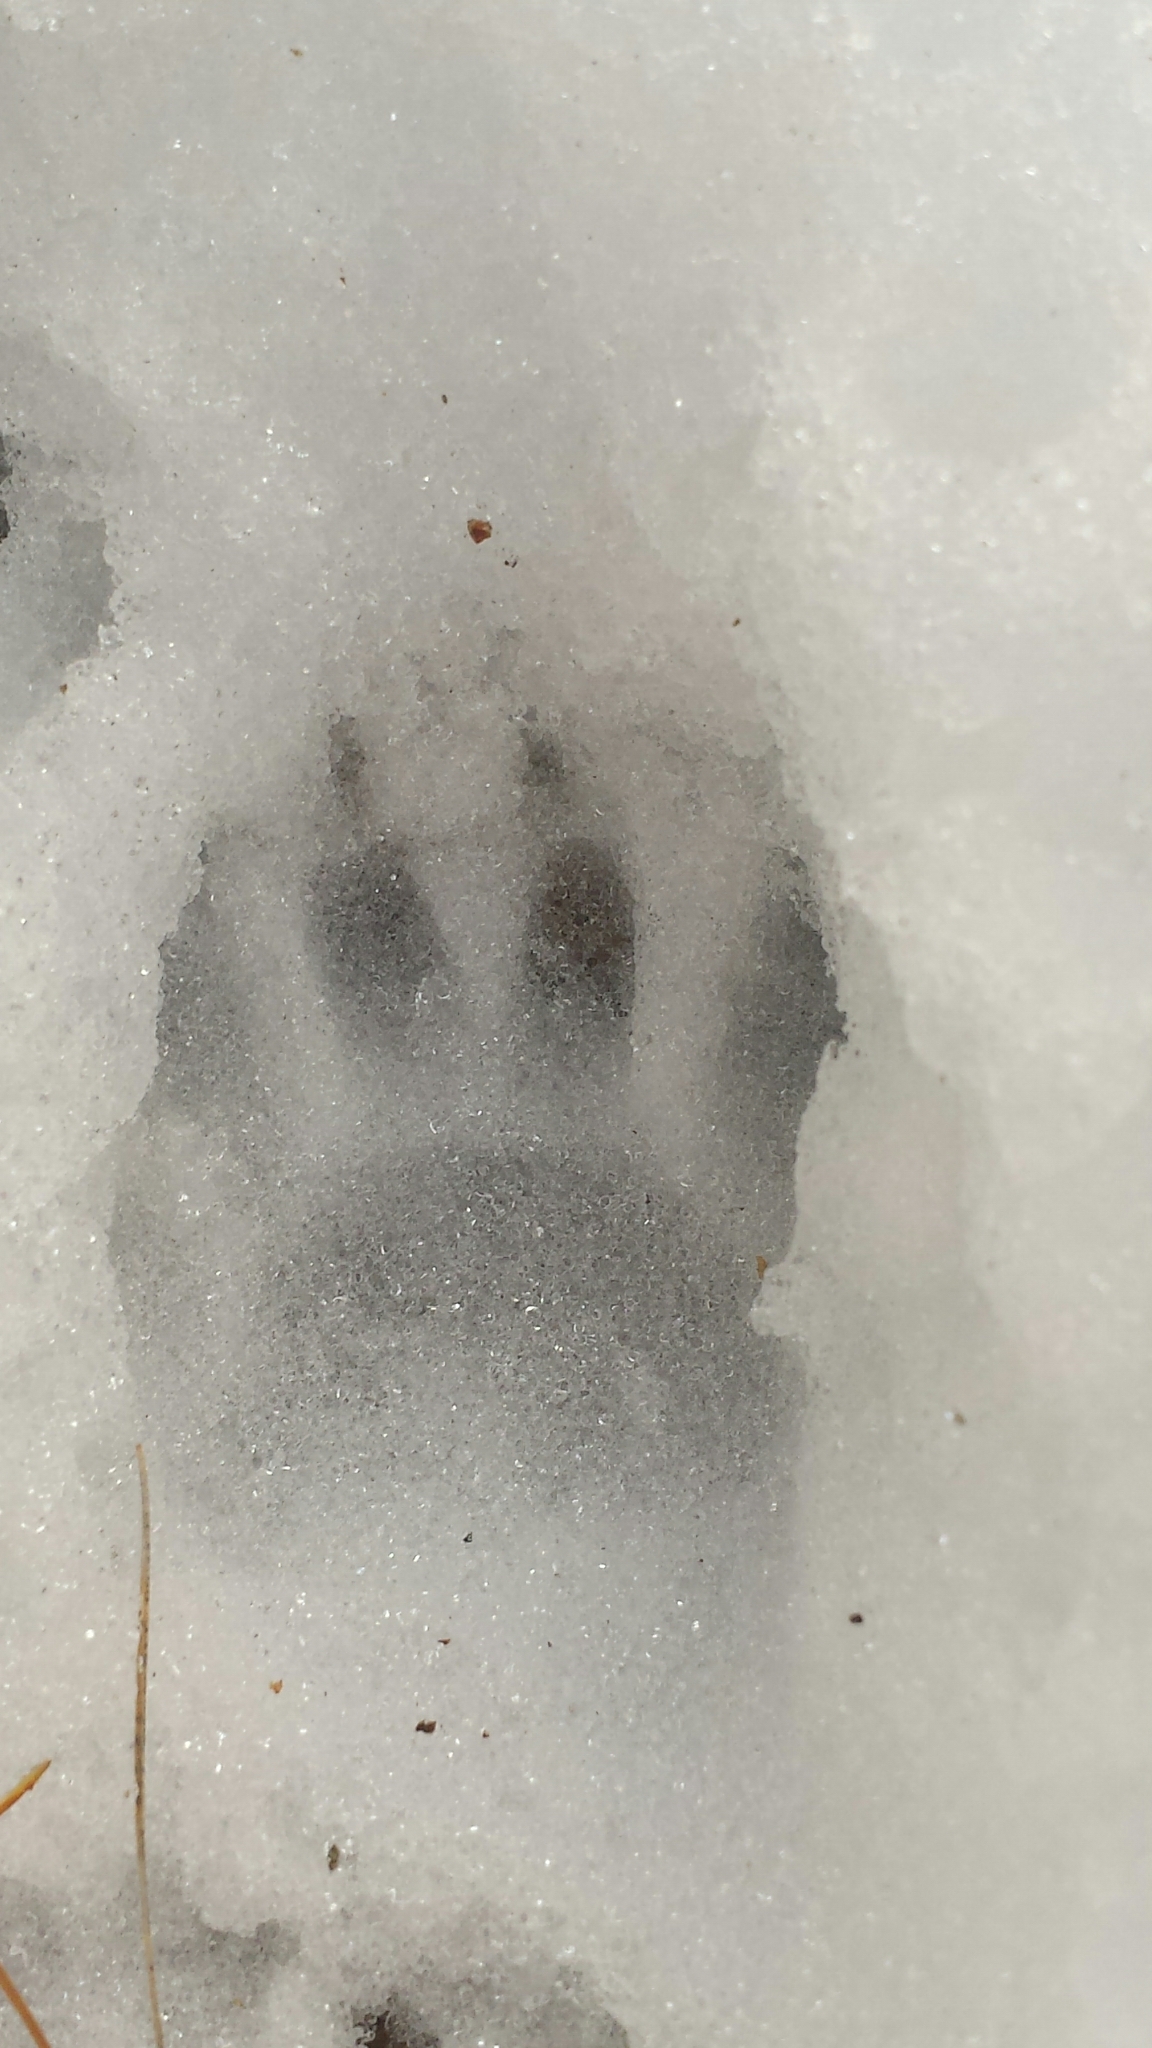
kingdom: Animalia
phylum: Chordata
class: Mammalia
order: Carnivora
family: Procyonidae
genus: Procyon
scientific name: Procyon lotor
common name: Raccoon
